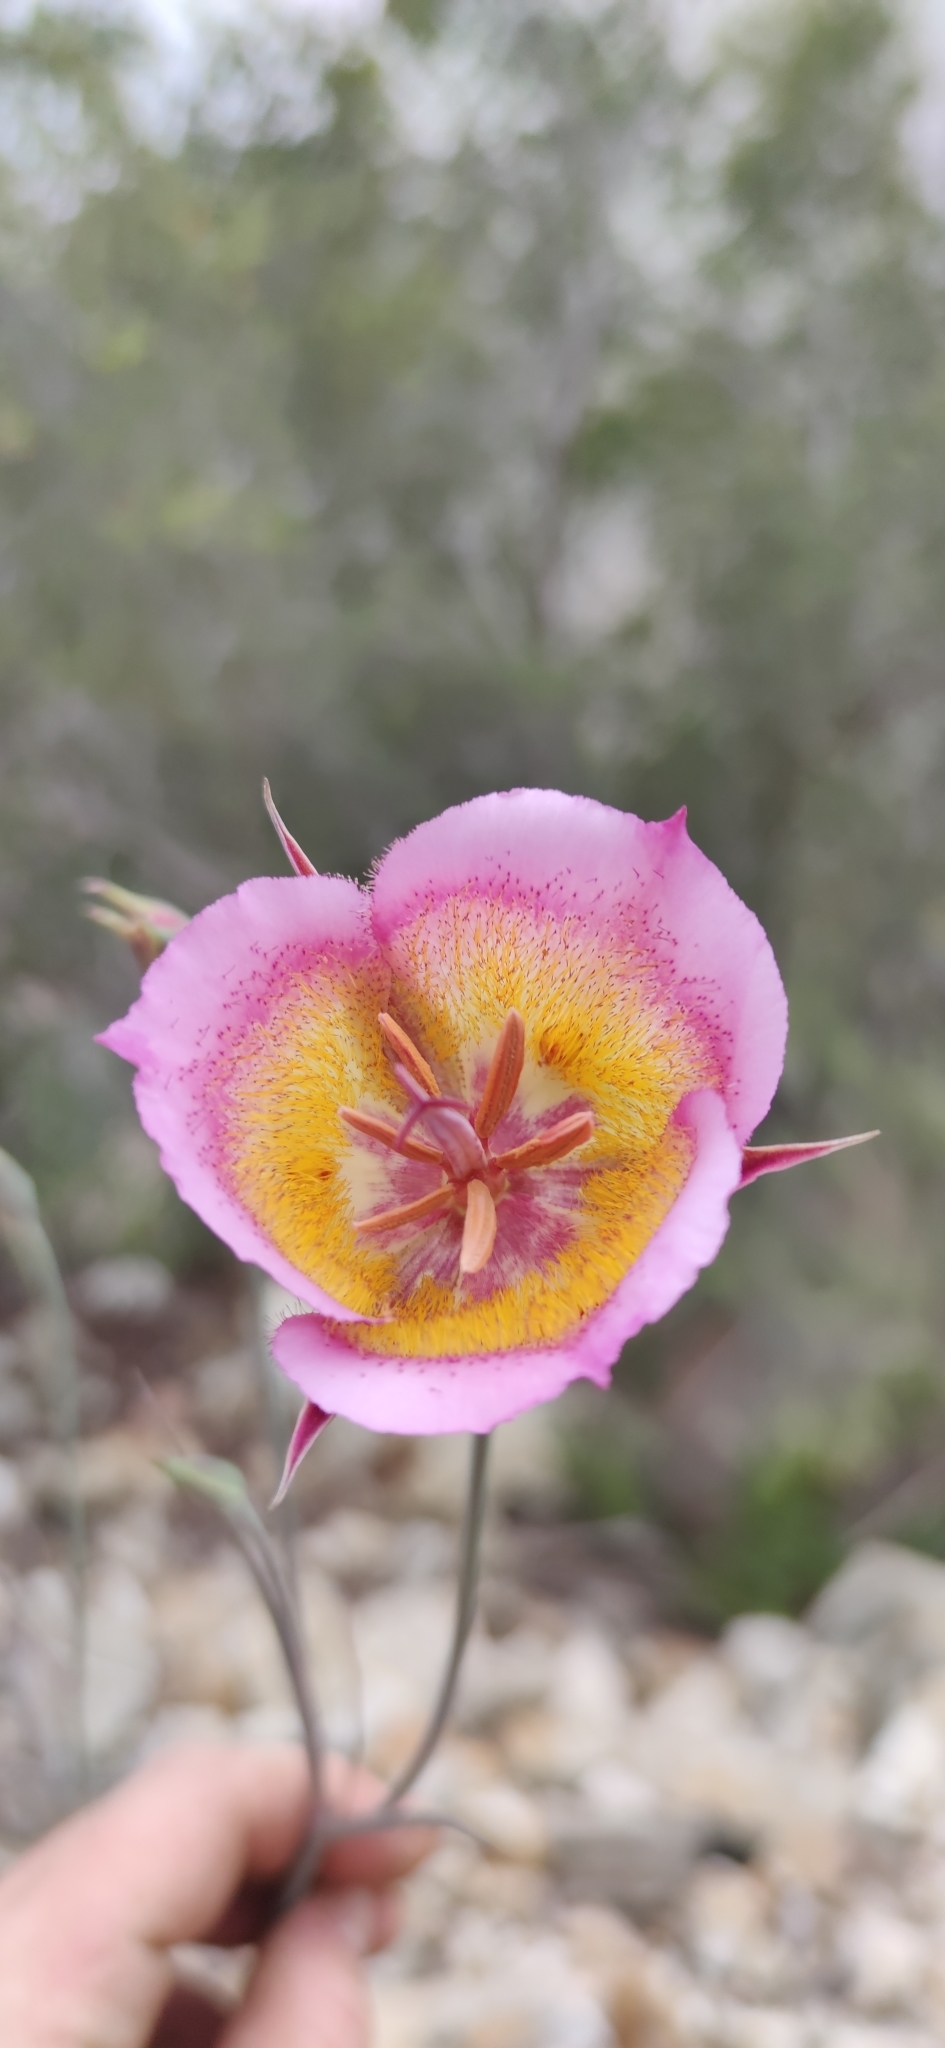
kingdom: Plantae
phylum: Tracheophyta
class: Liliopsida
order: Liliales
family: Liliaceae
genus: Calochortus
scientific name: Calochortus plummerae
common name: Plummer's mariposa-lily
